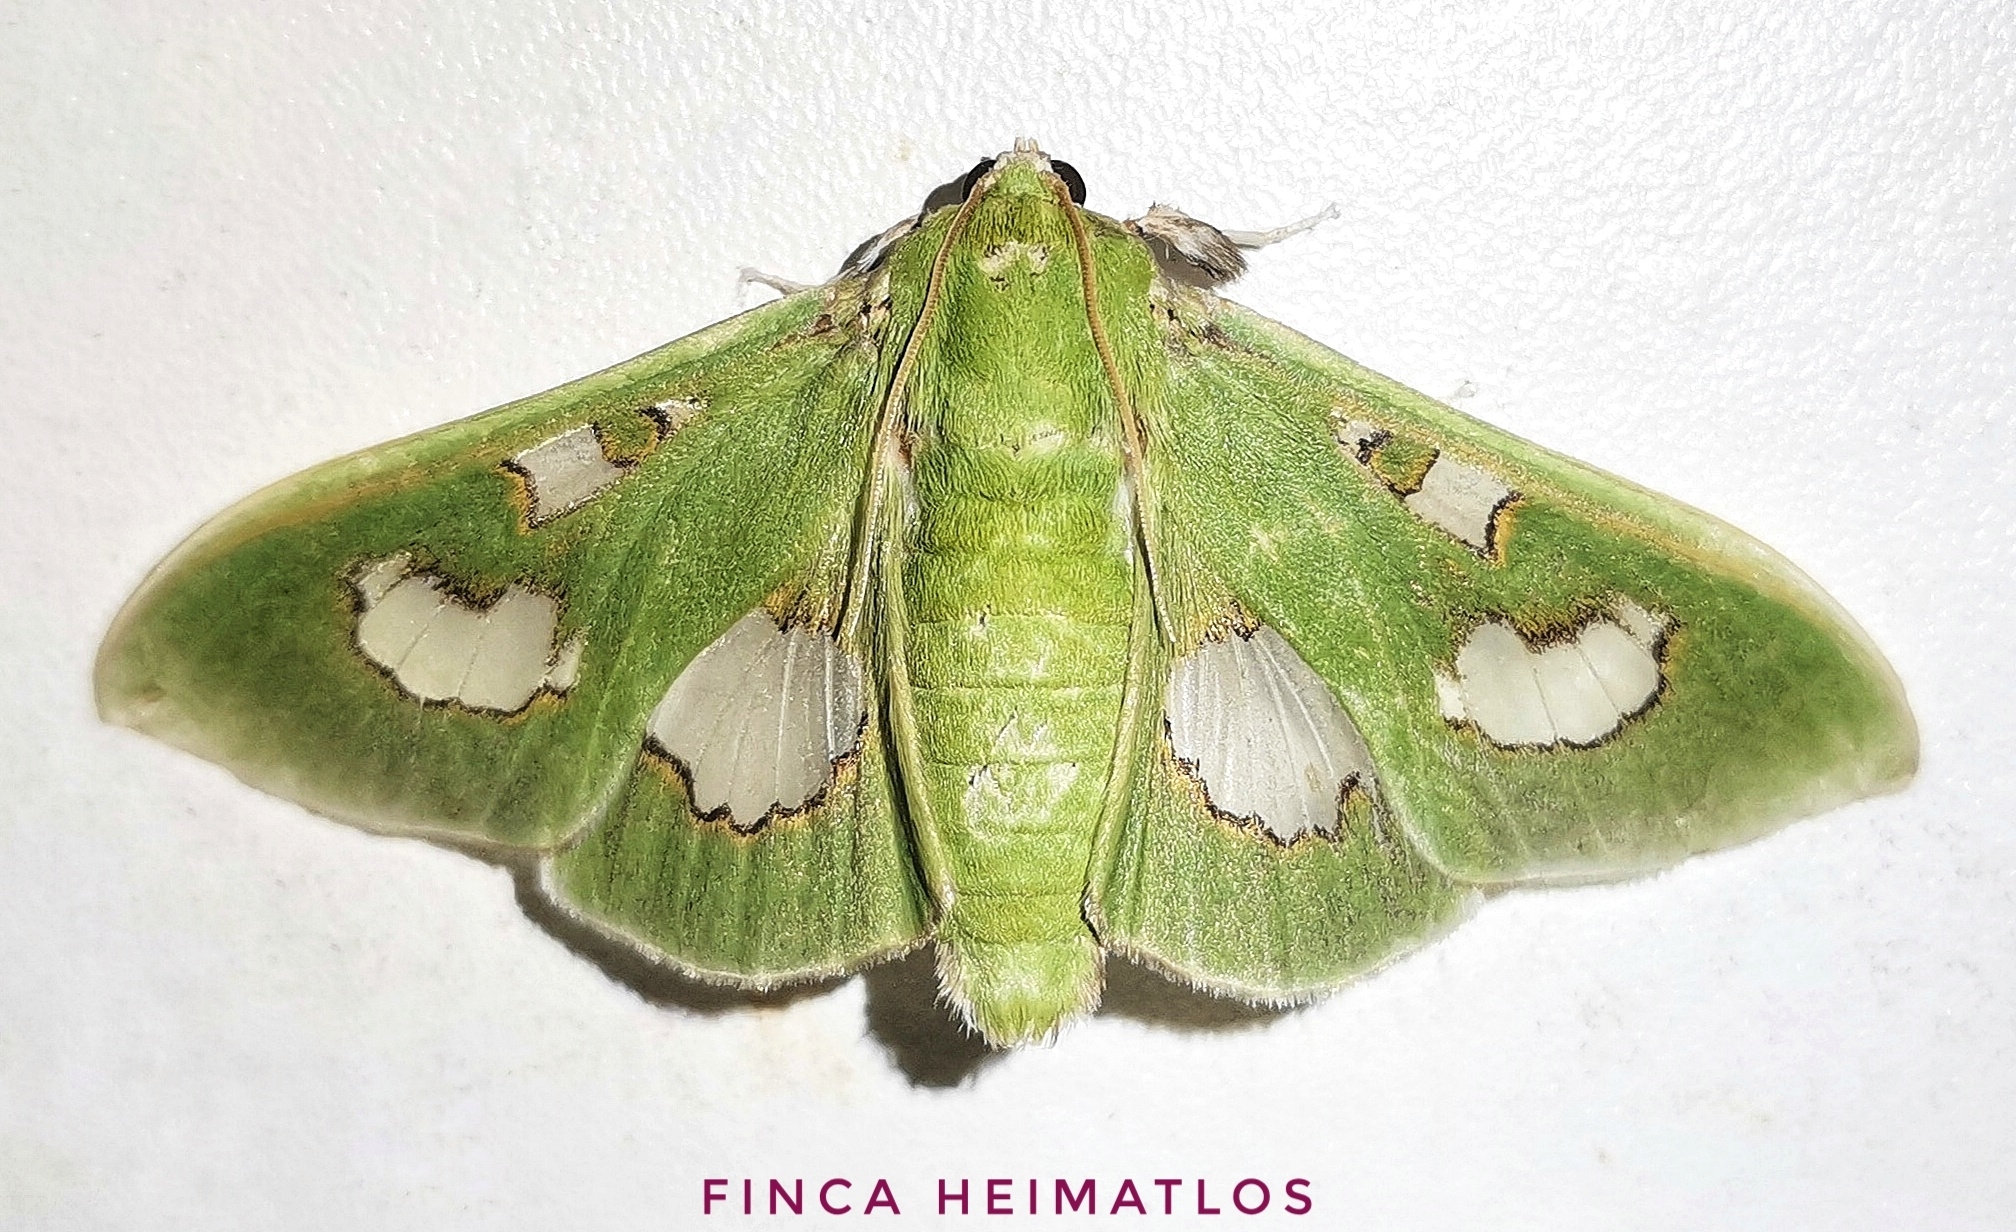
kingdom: Animalia
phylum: Arthropoda
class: Insecta
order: Lepidoptera
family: Crambidae
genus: Siga
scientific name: Siga liris
